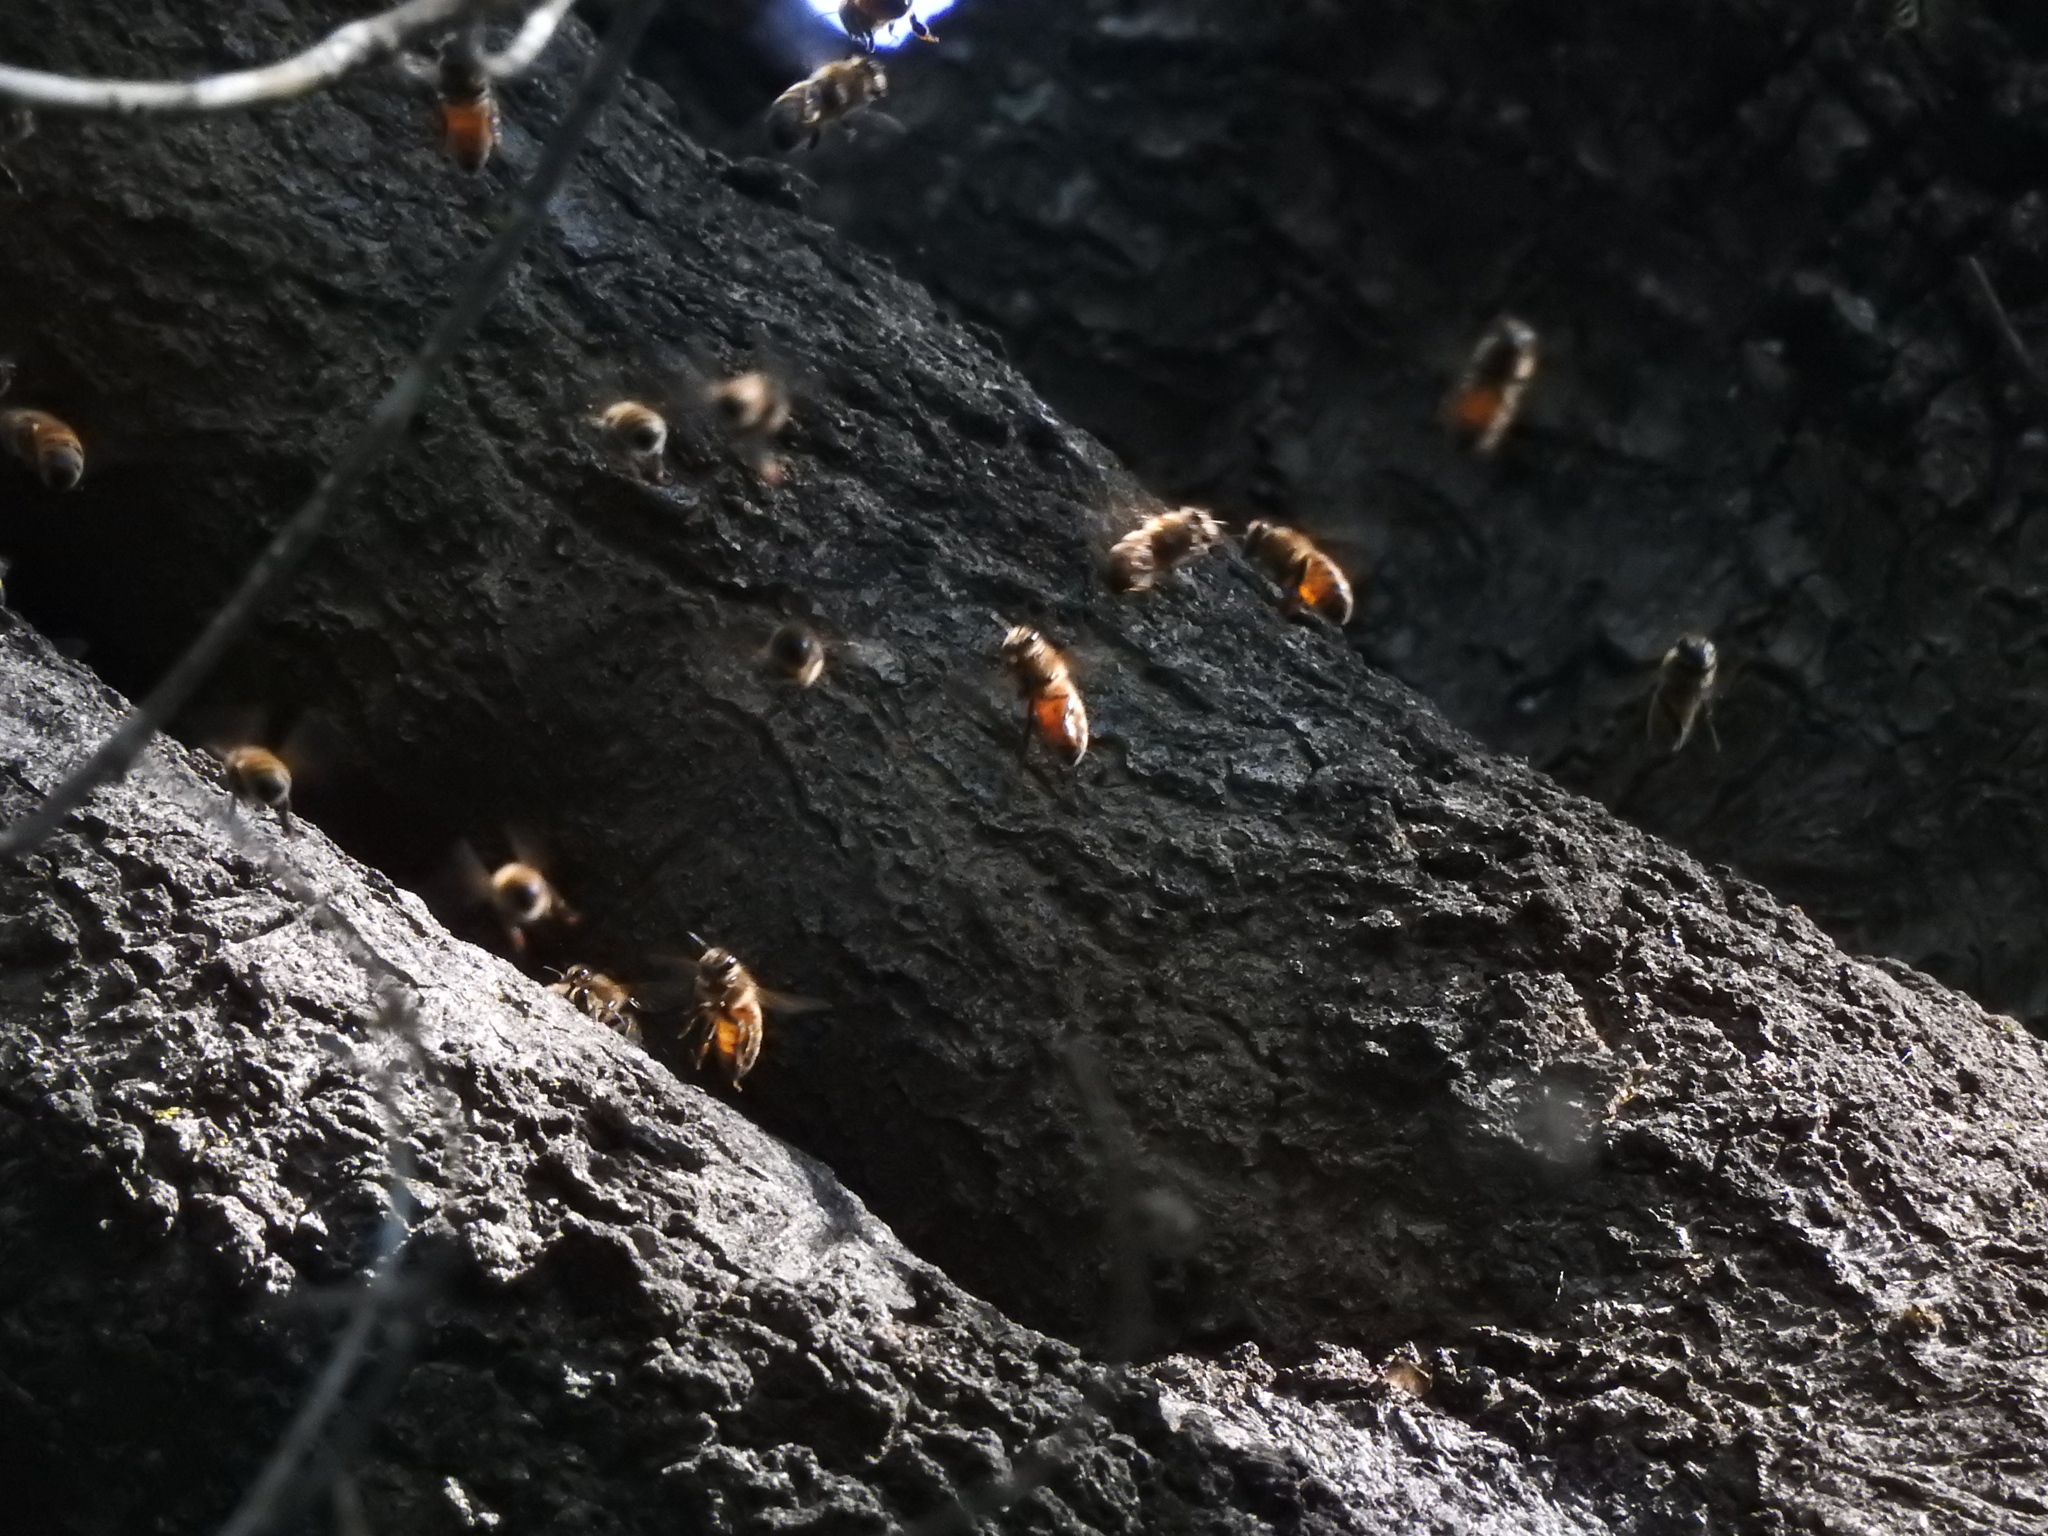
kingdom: Animalia
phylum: Arthropoda
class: Insecta
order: Hymenoptera
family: Apidae
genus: Apis
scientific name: Apis mellifera
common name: Honey bee
